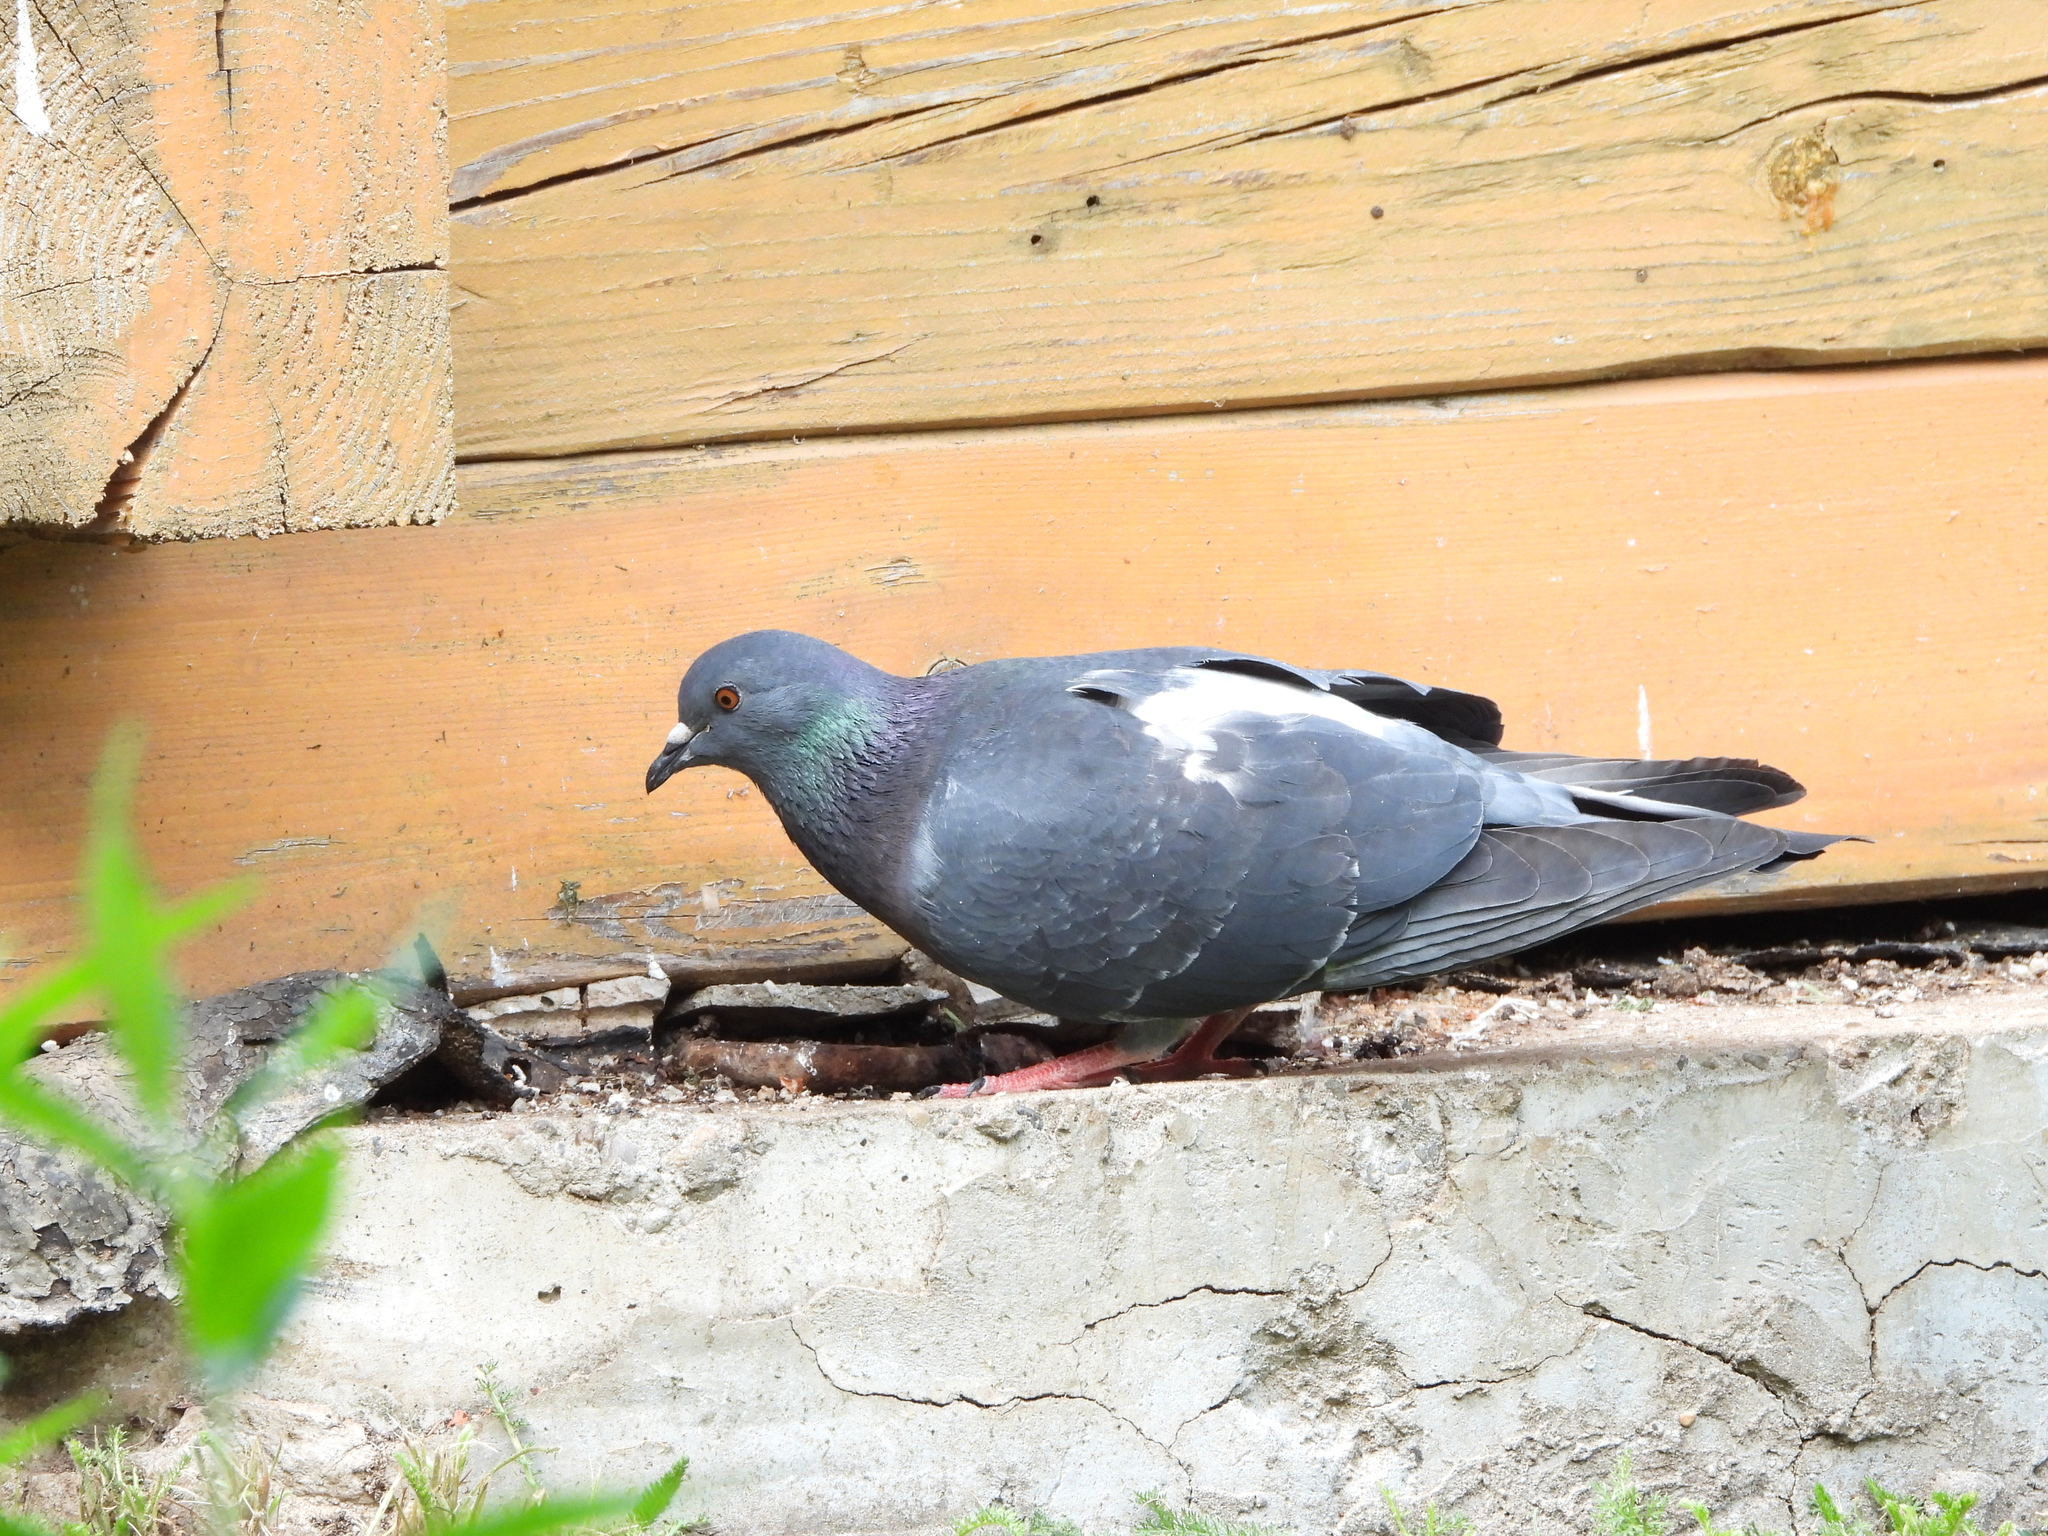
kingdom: Animalia
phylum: Chordata
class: Aves
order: Columbiformes
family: Columbidae
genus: Columba
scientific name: Columba livia
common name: Rock pigeon
